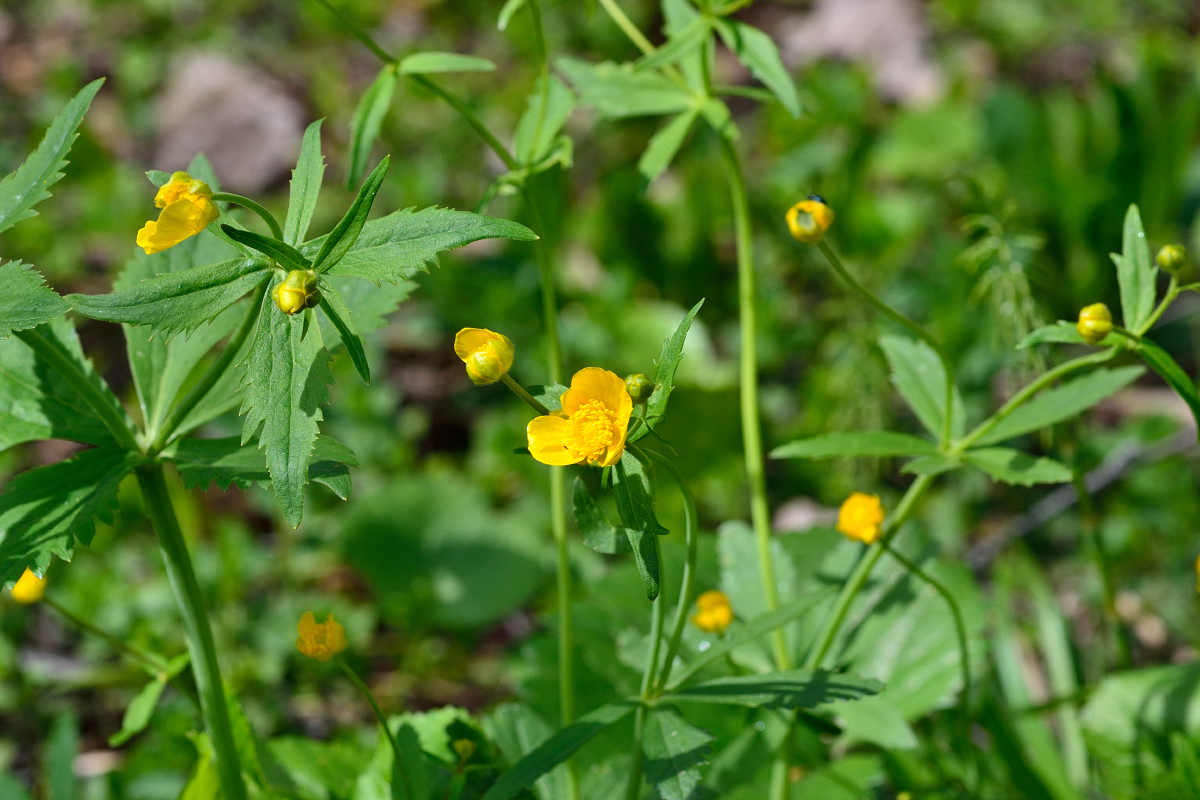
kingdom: Plantae
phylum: Tracheophyta
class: Magnoliopsida
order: Ranunculales
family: Ranunculaceae
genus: Ranunculus
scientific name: Ranunculus cassubicus
